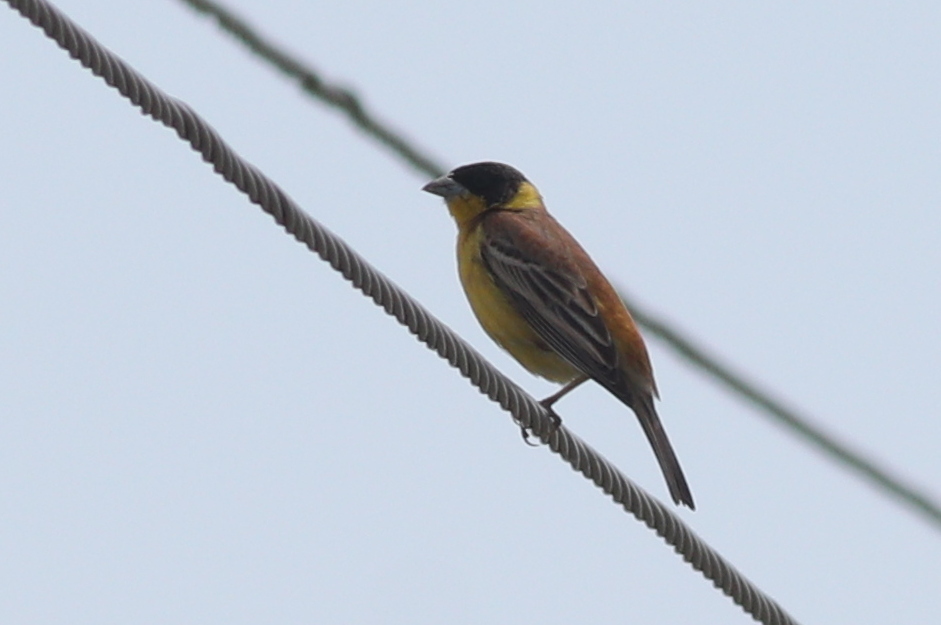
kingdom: Animalia
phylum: Chordata
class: Aves
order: Passeriformes
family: Emberizidae
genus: Emberiza
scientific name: Emberiza melanocephala
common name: Black-headed bunting
